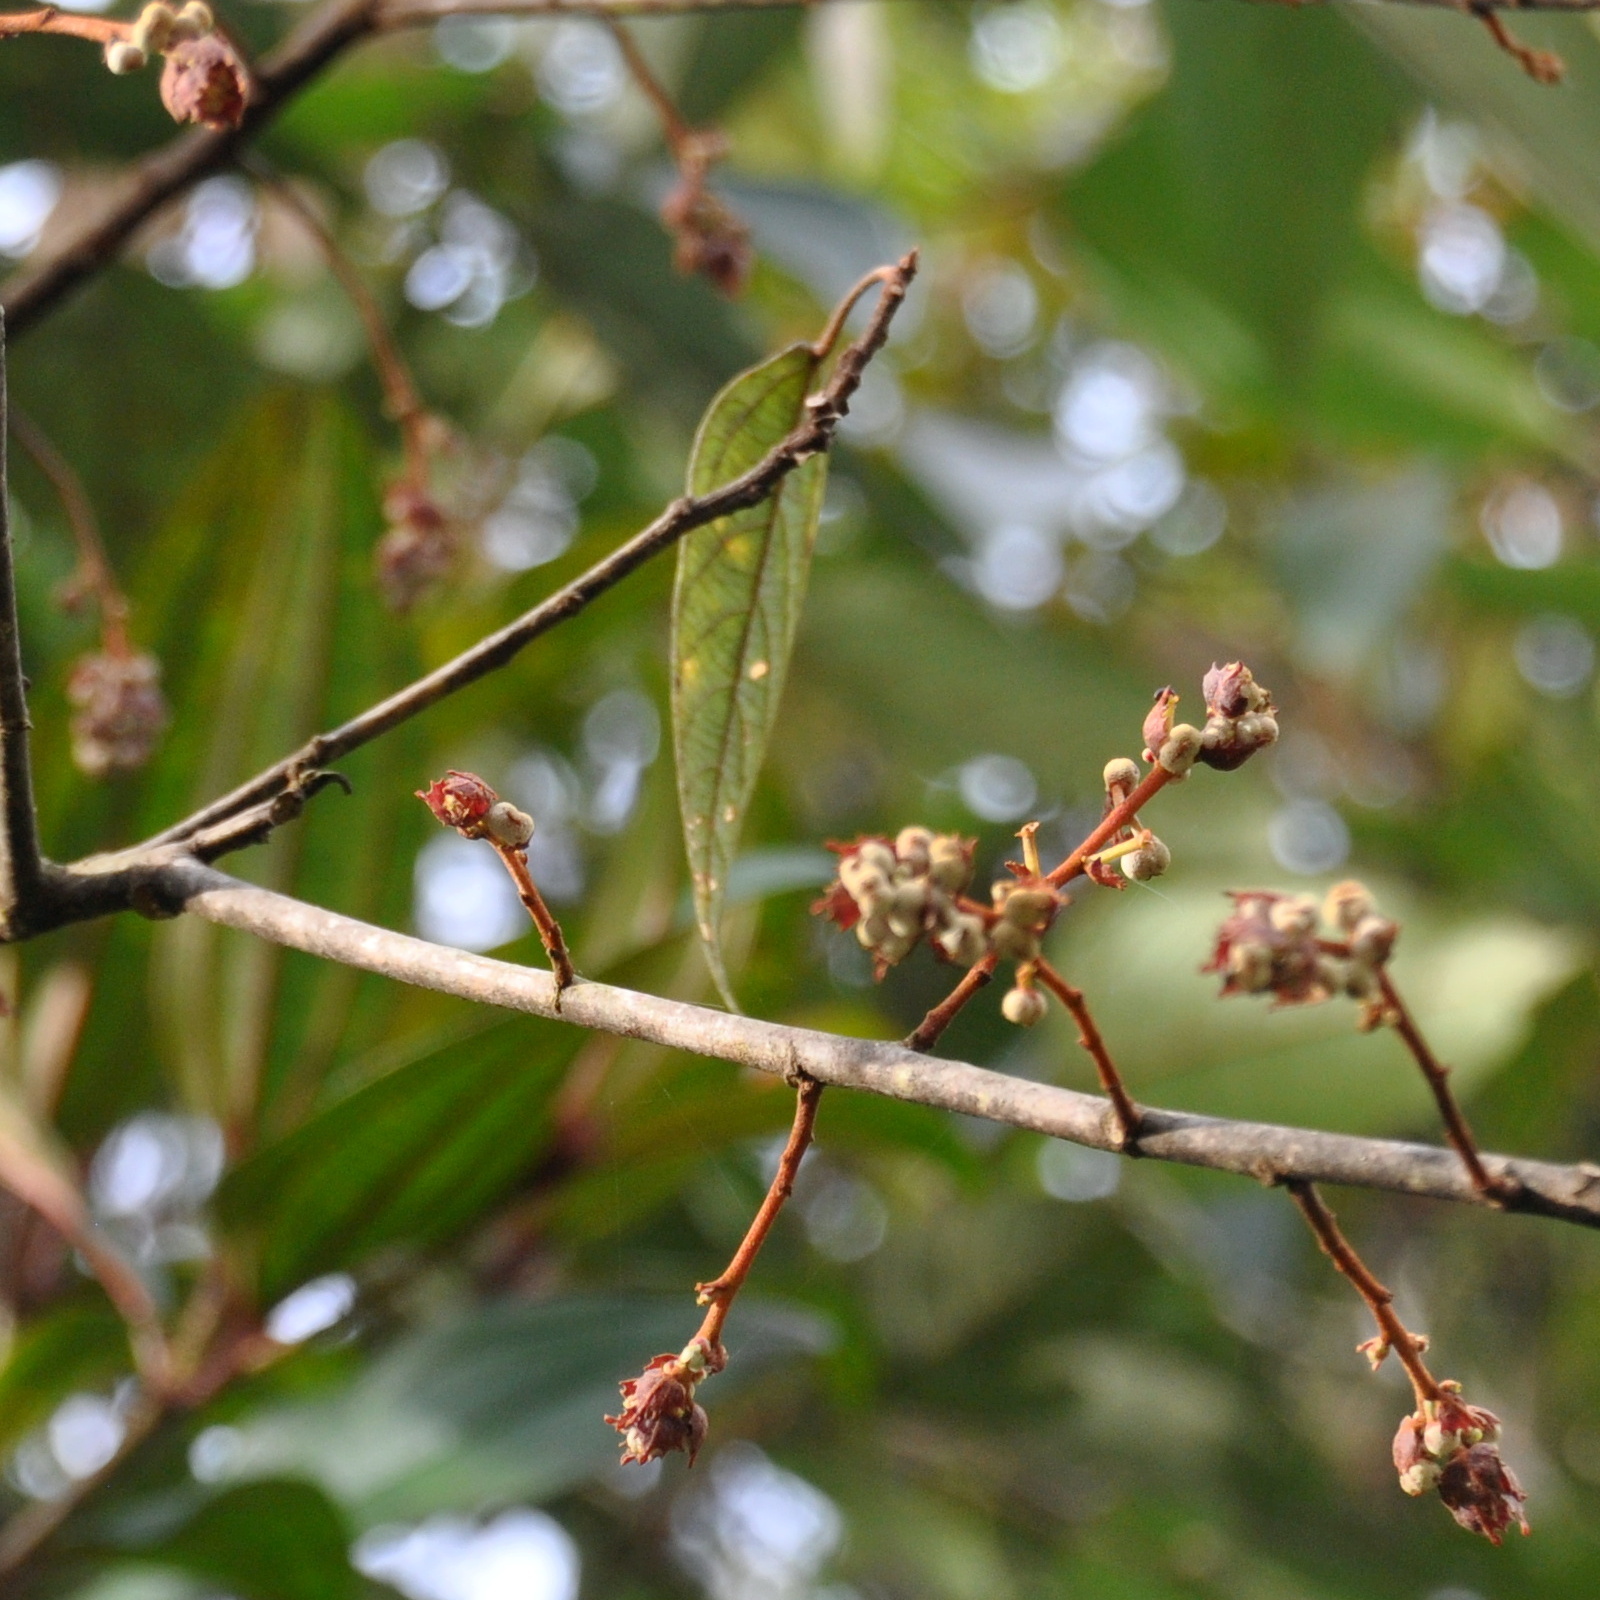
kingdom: Plantae
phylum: Tracheophyta
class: Magnoliopsida
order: Malpighiales
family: Euphorbiaceae
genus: Macaranga
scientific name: Macaranga heynei
